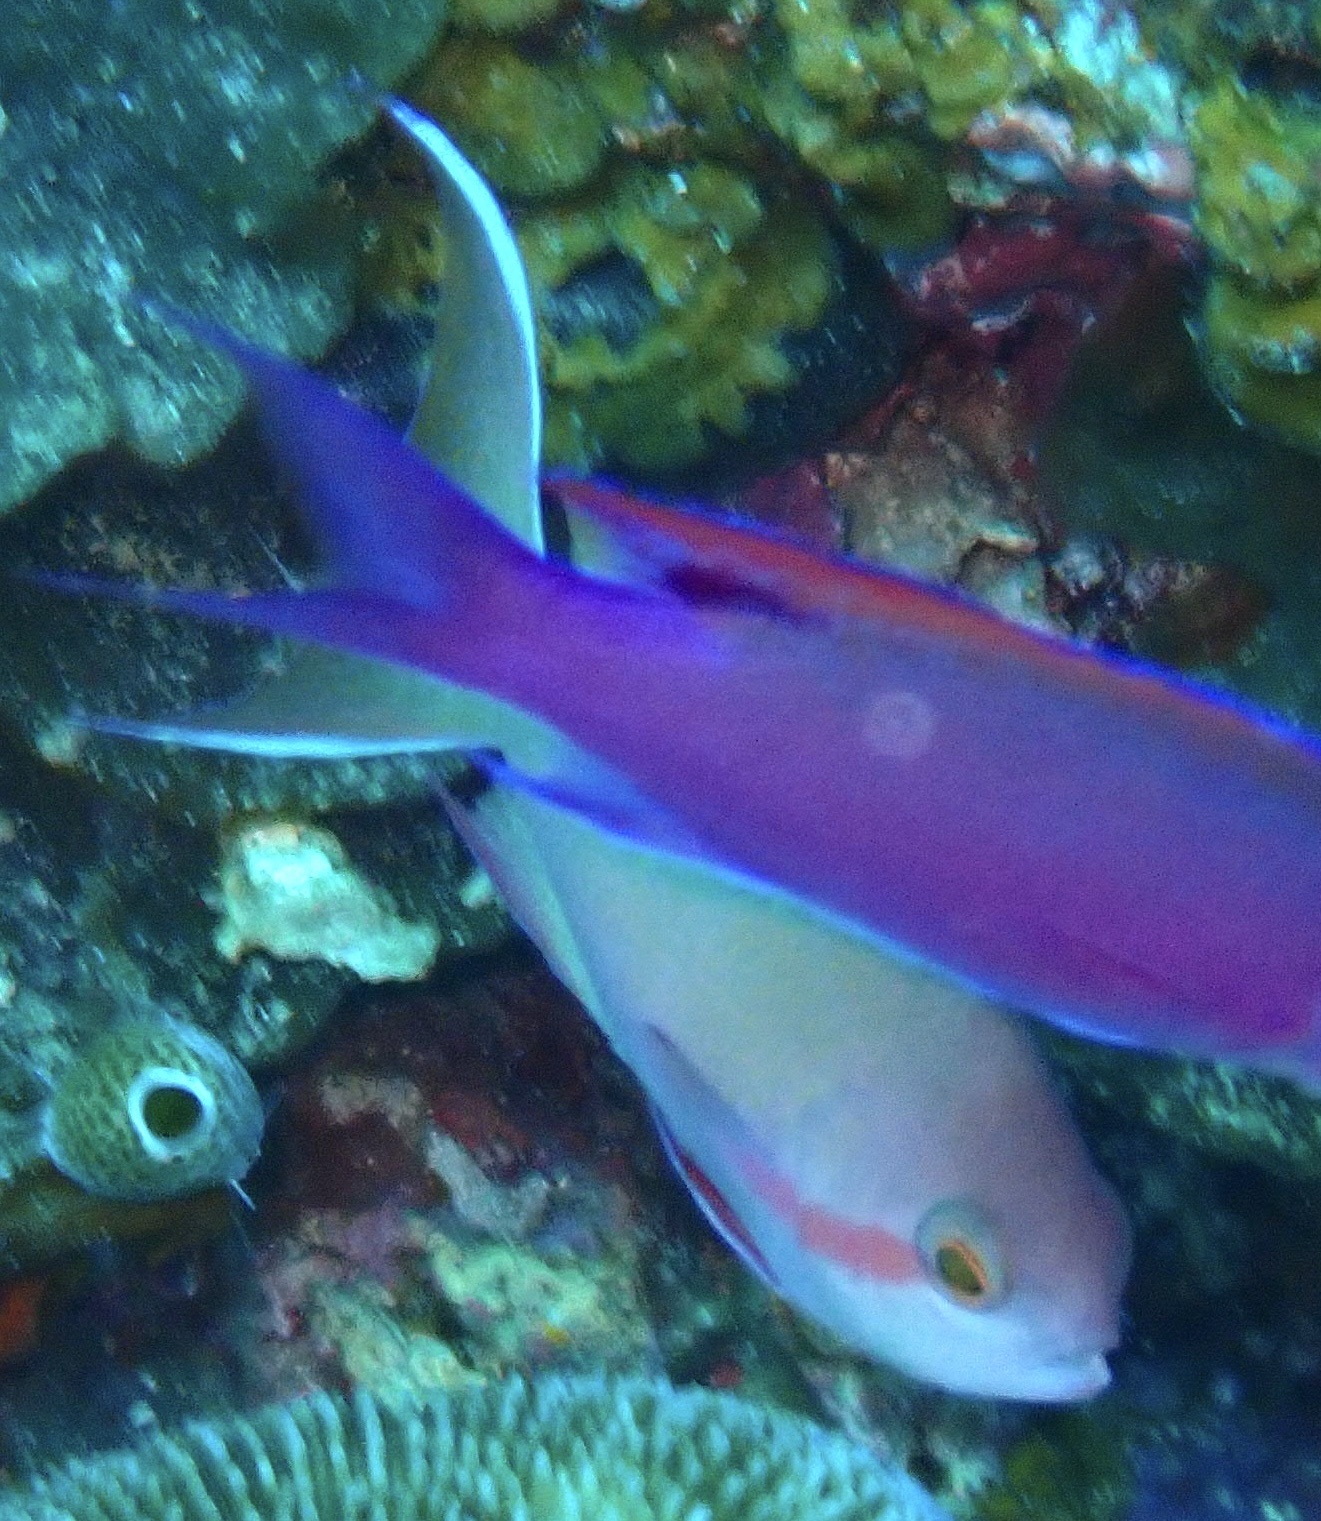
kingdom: Animalia
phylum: Chordata
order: Perciformes
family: Serranidae
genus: Pseudanthias
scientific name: Pseudanthias huchtii
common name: Pacific basslet
